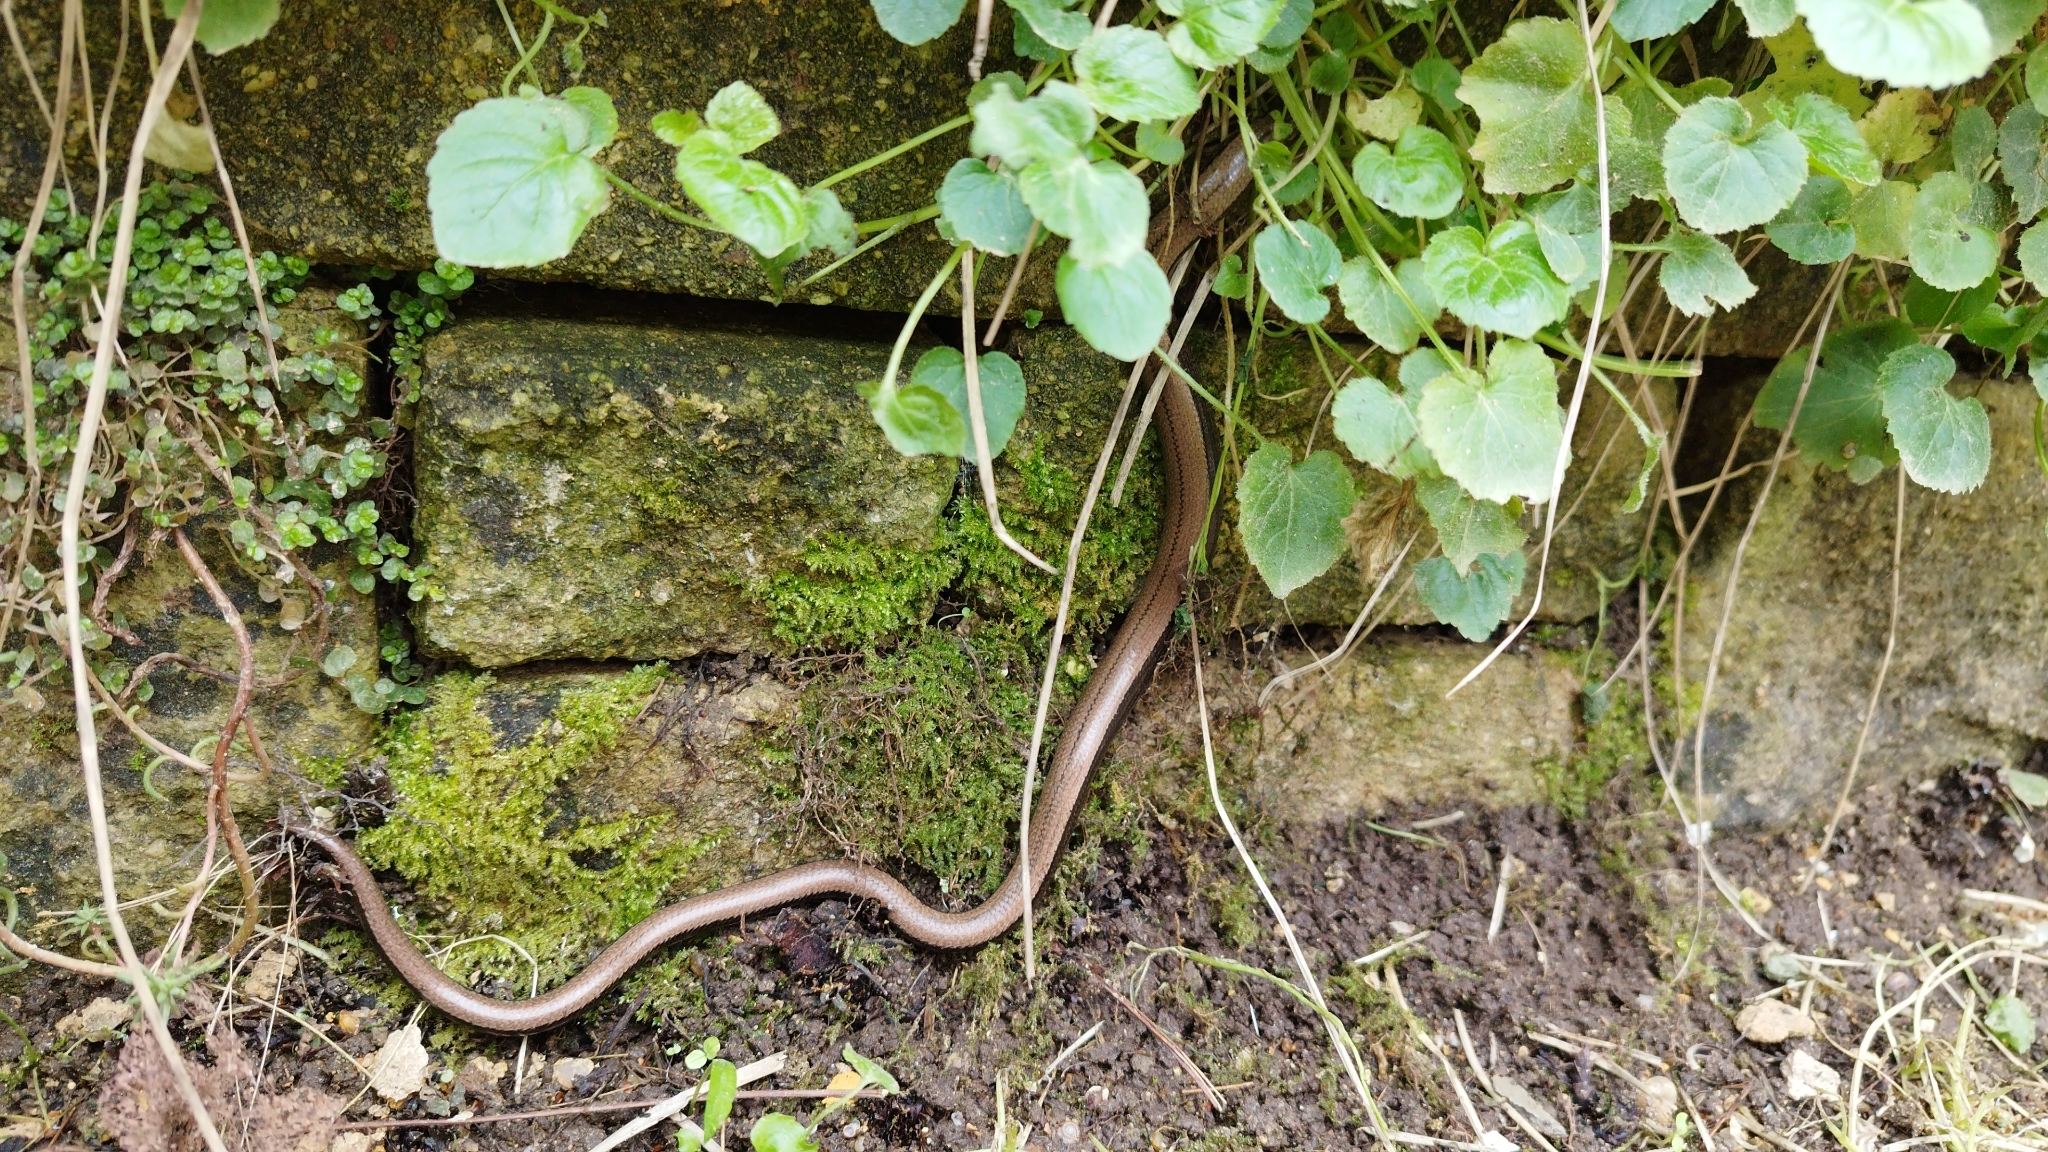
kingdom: Animalia
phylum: Chordata
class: Squamata
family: Anguidae
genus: Anguis
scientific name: Anguis fragilis
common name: Slow worm
